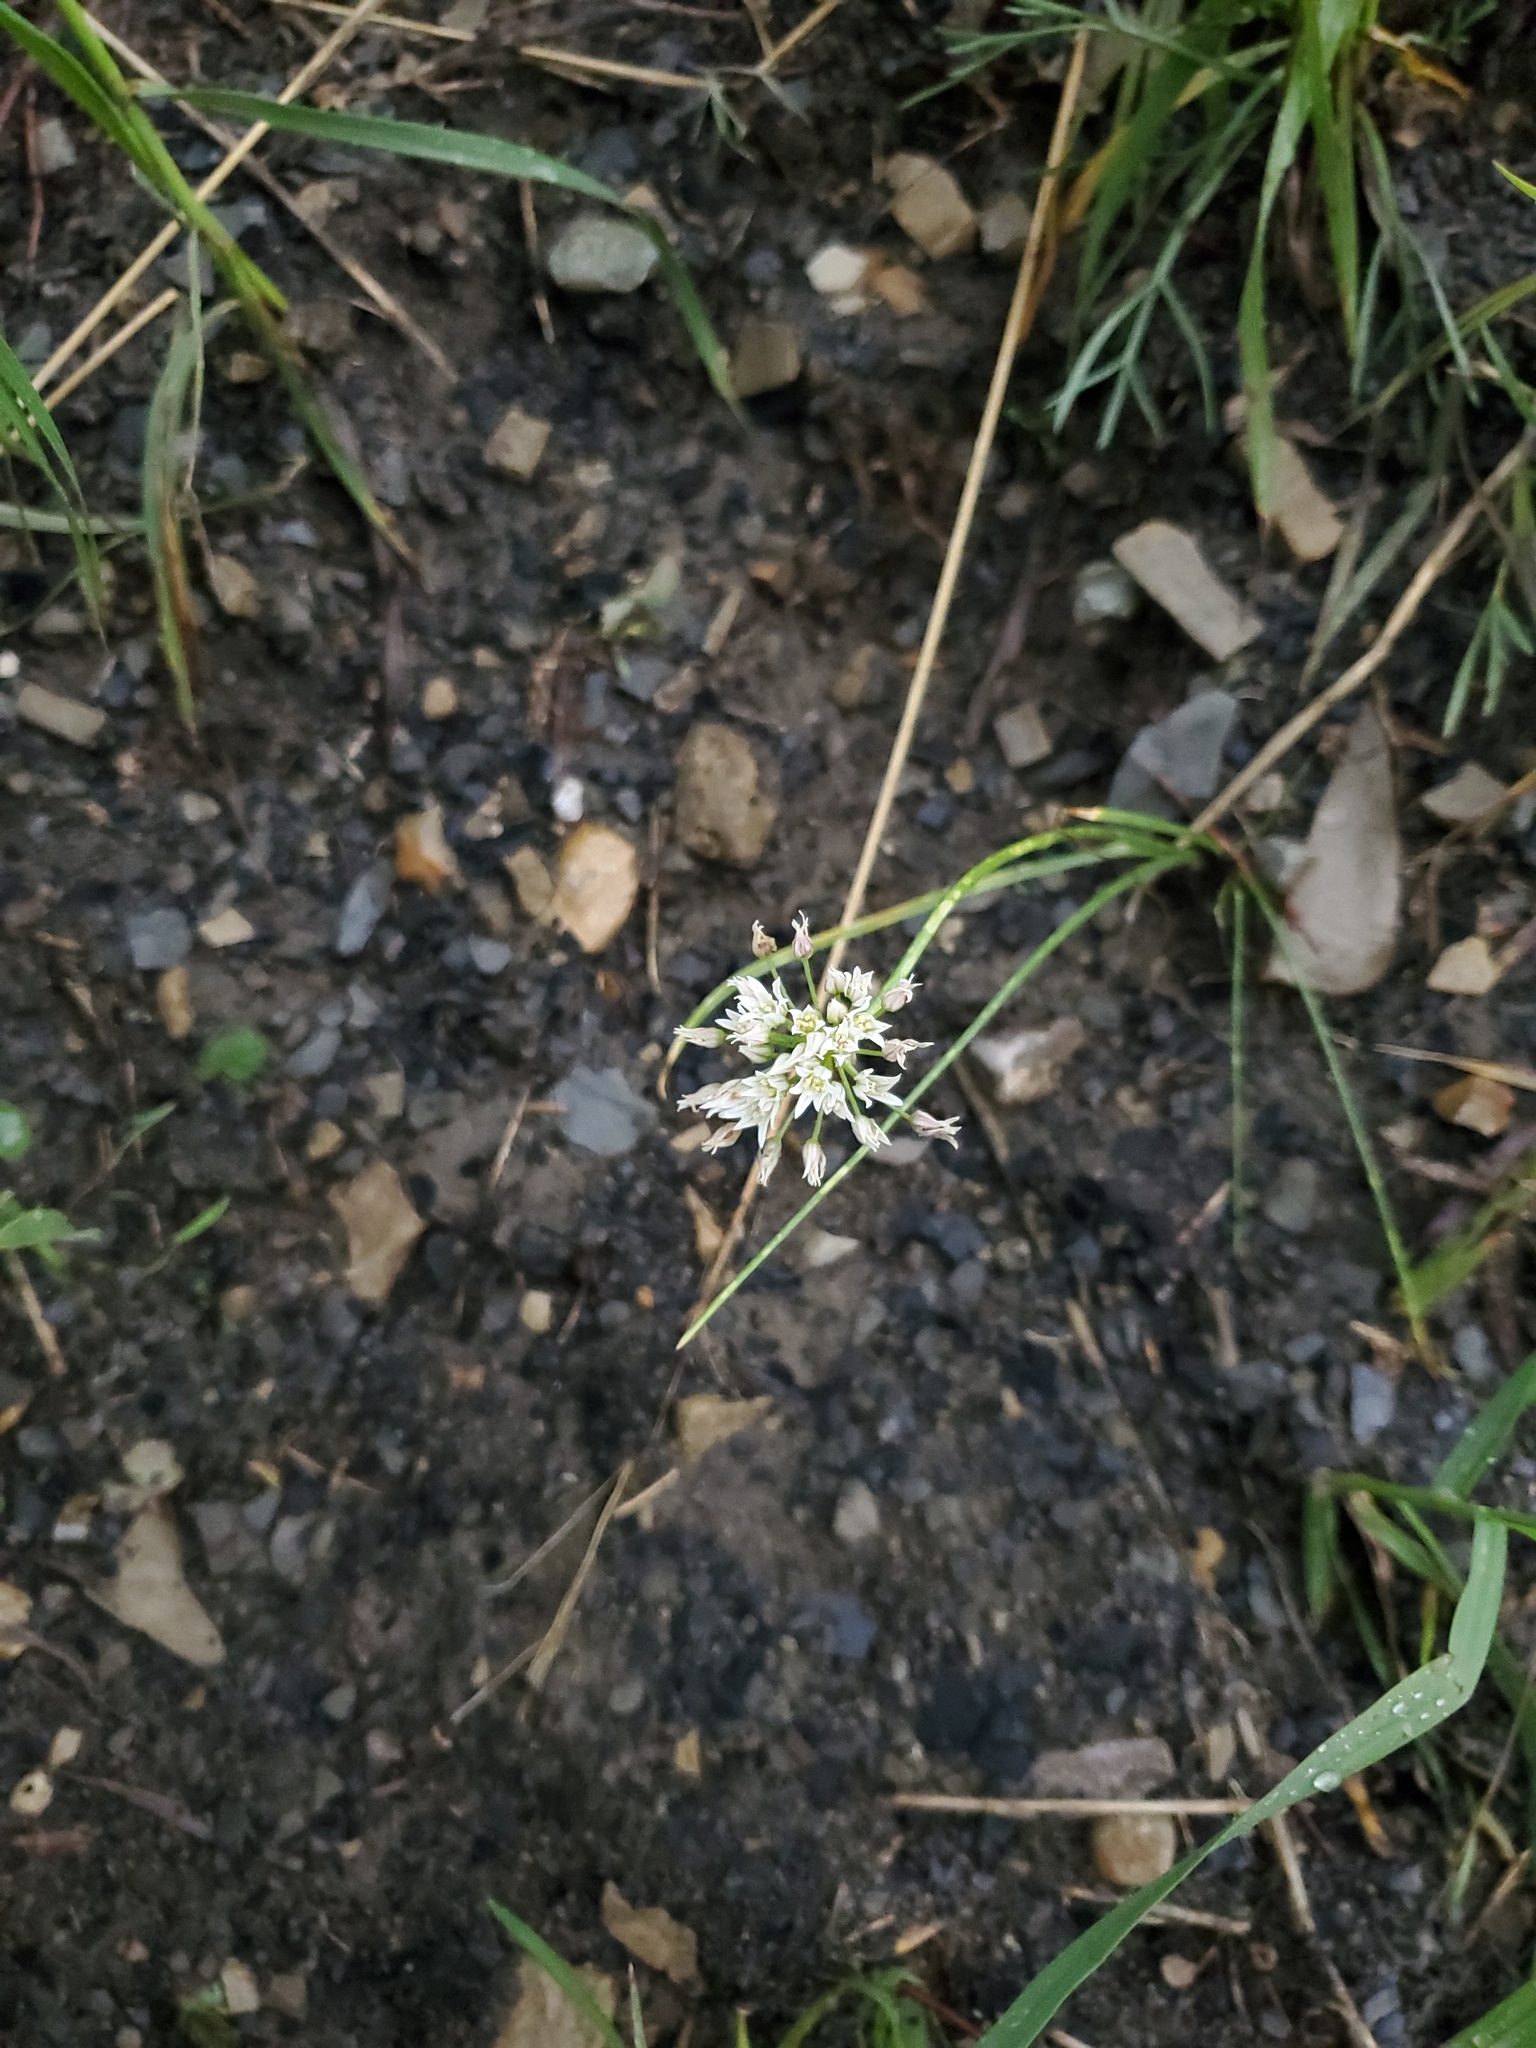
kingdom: Plantae
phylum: Tracheophyta
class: Liliopsida
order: Asparagales
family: Amaryllidaceae
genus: Allium
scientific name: Allium textile
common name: Prairie onion
